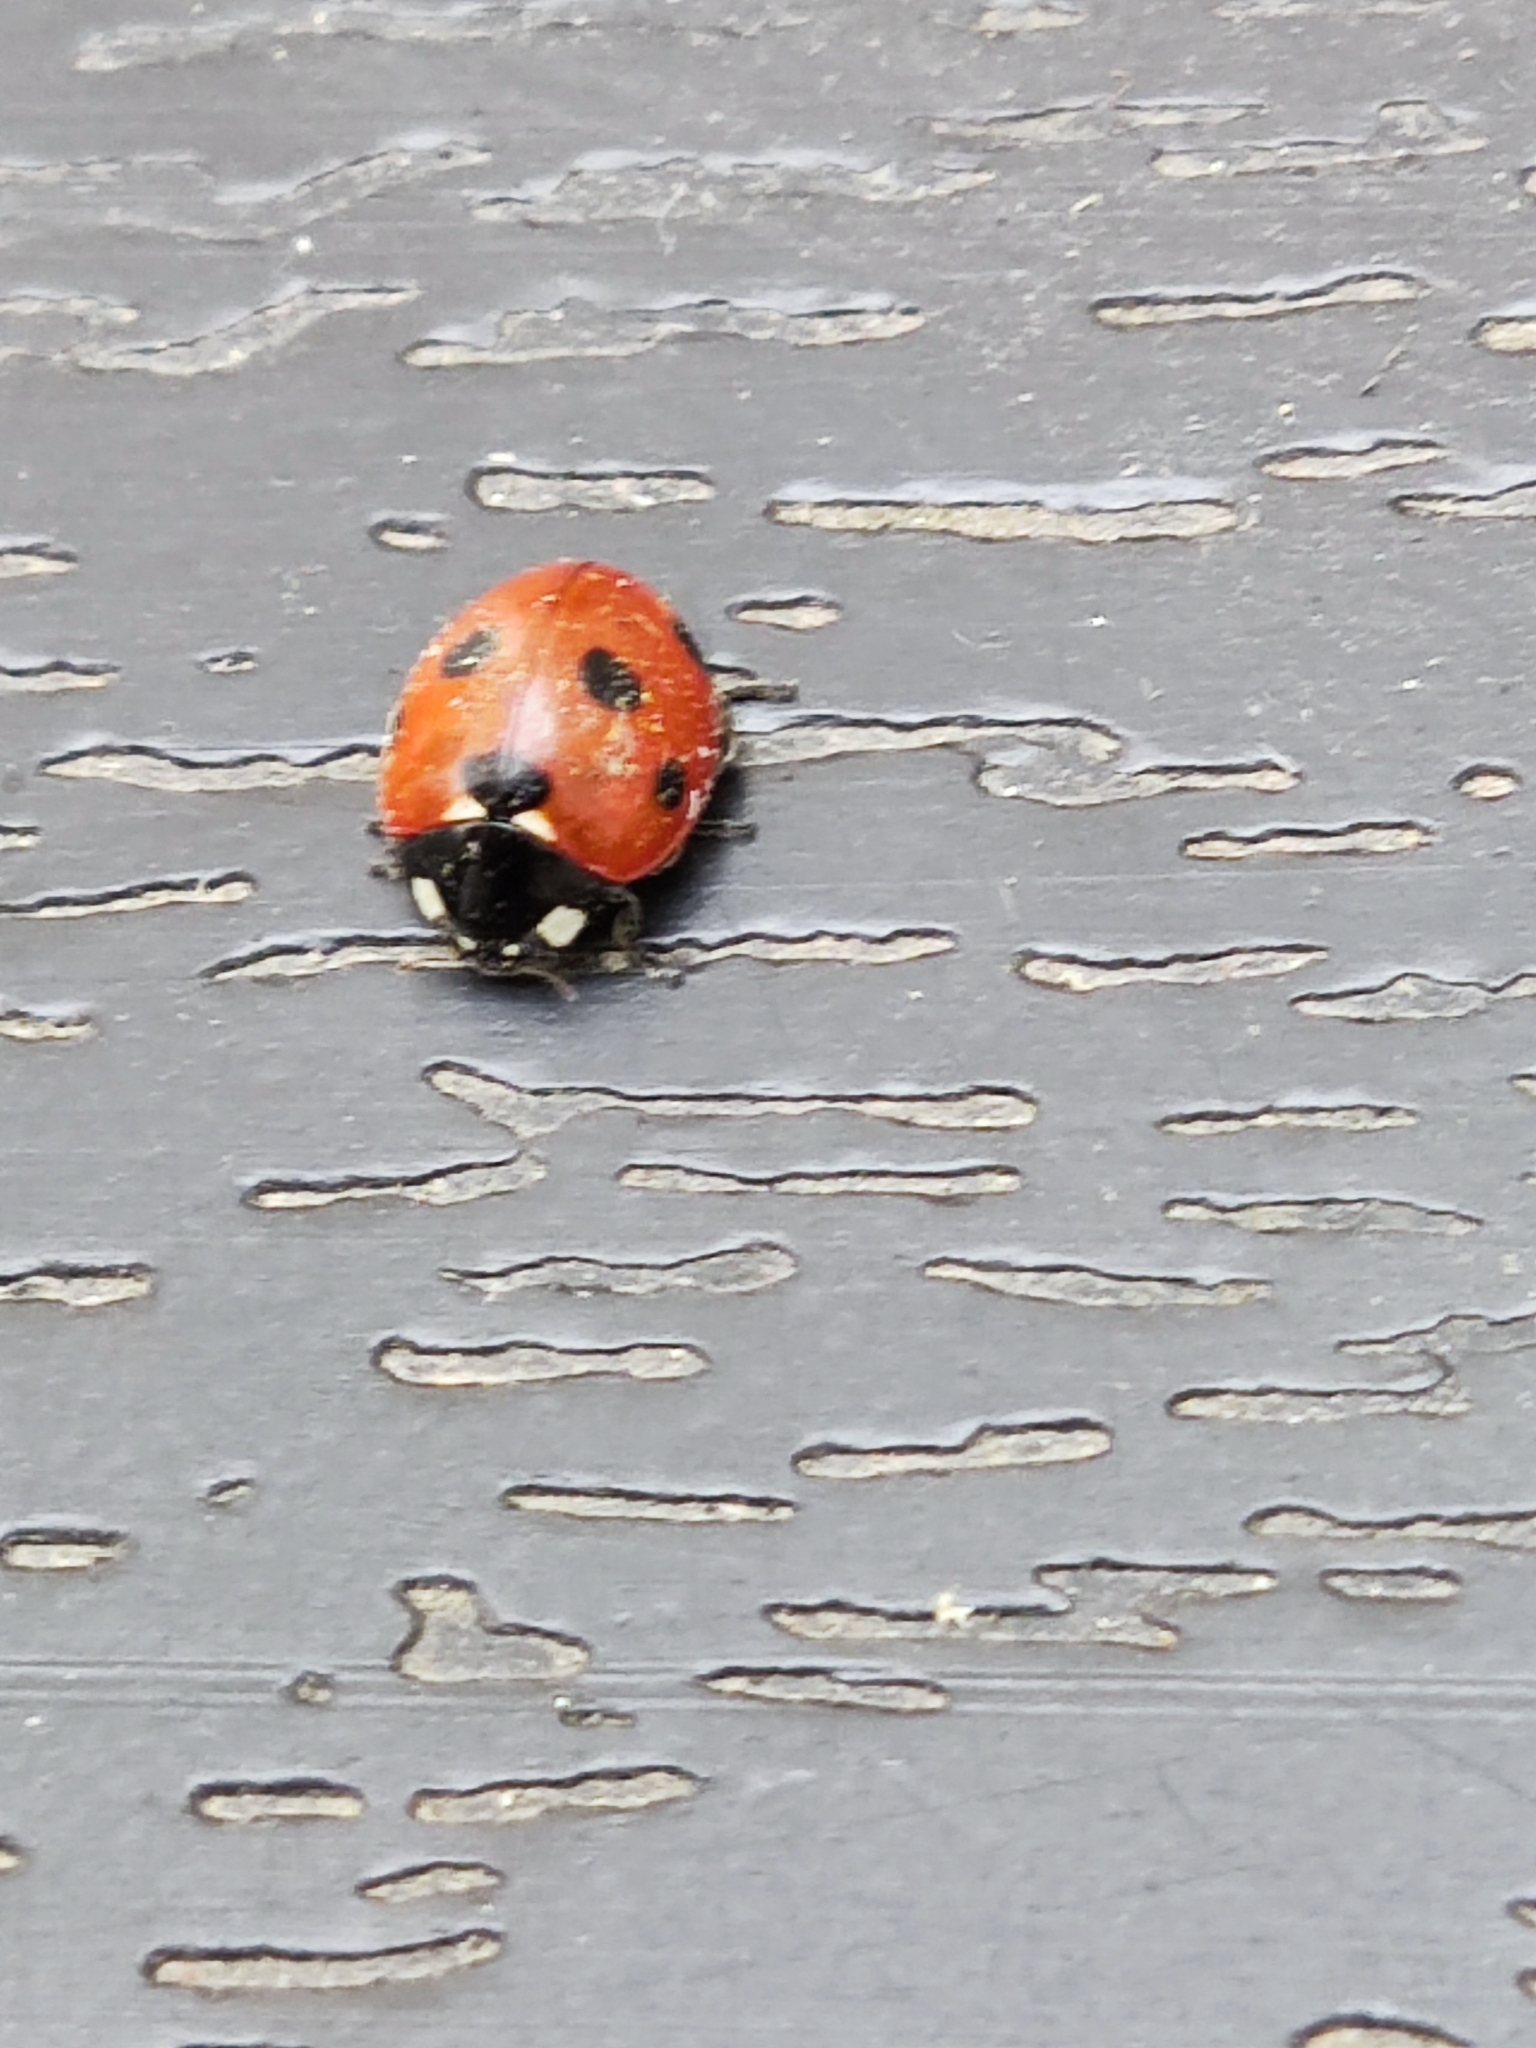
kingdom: Animalia
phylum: Arthropoda
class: Insecta
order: Coleoptera
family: Coccinellidae
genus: Coccinella
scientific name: Coccinella septempunctata
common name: Sevenspotted lady beetle
